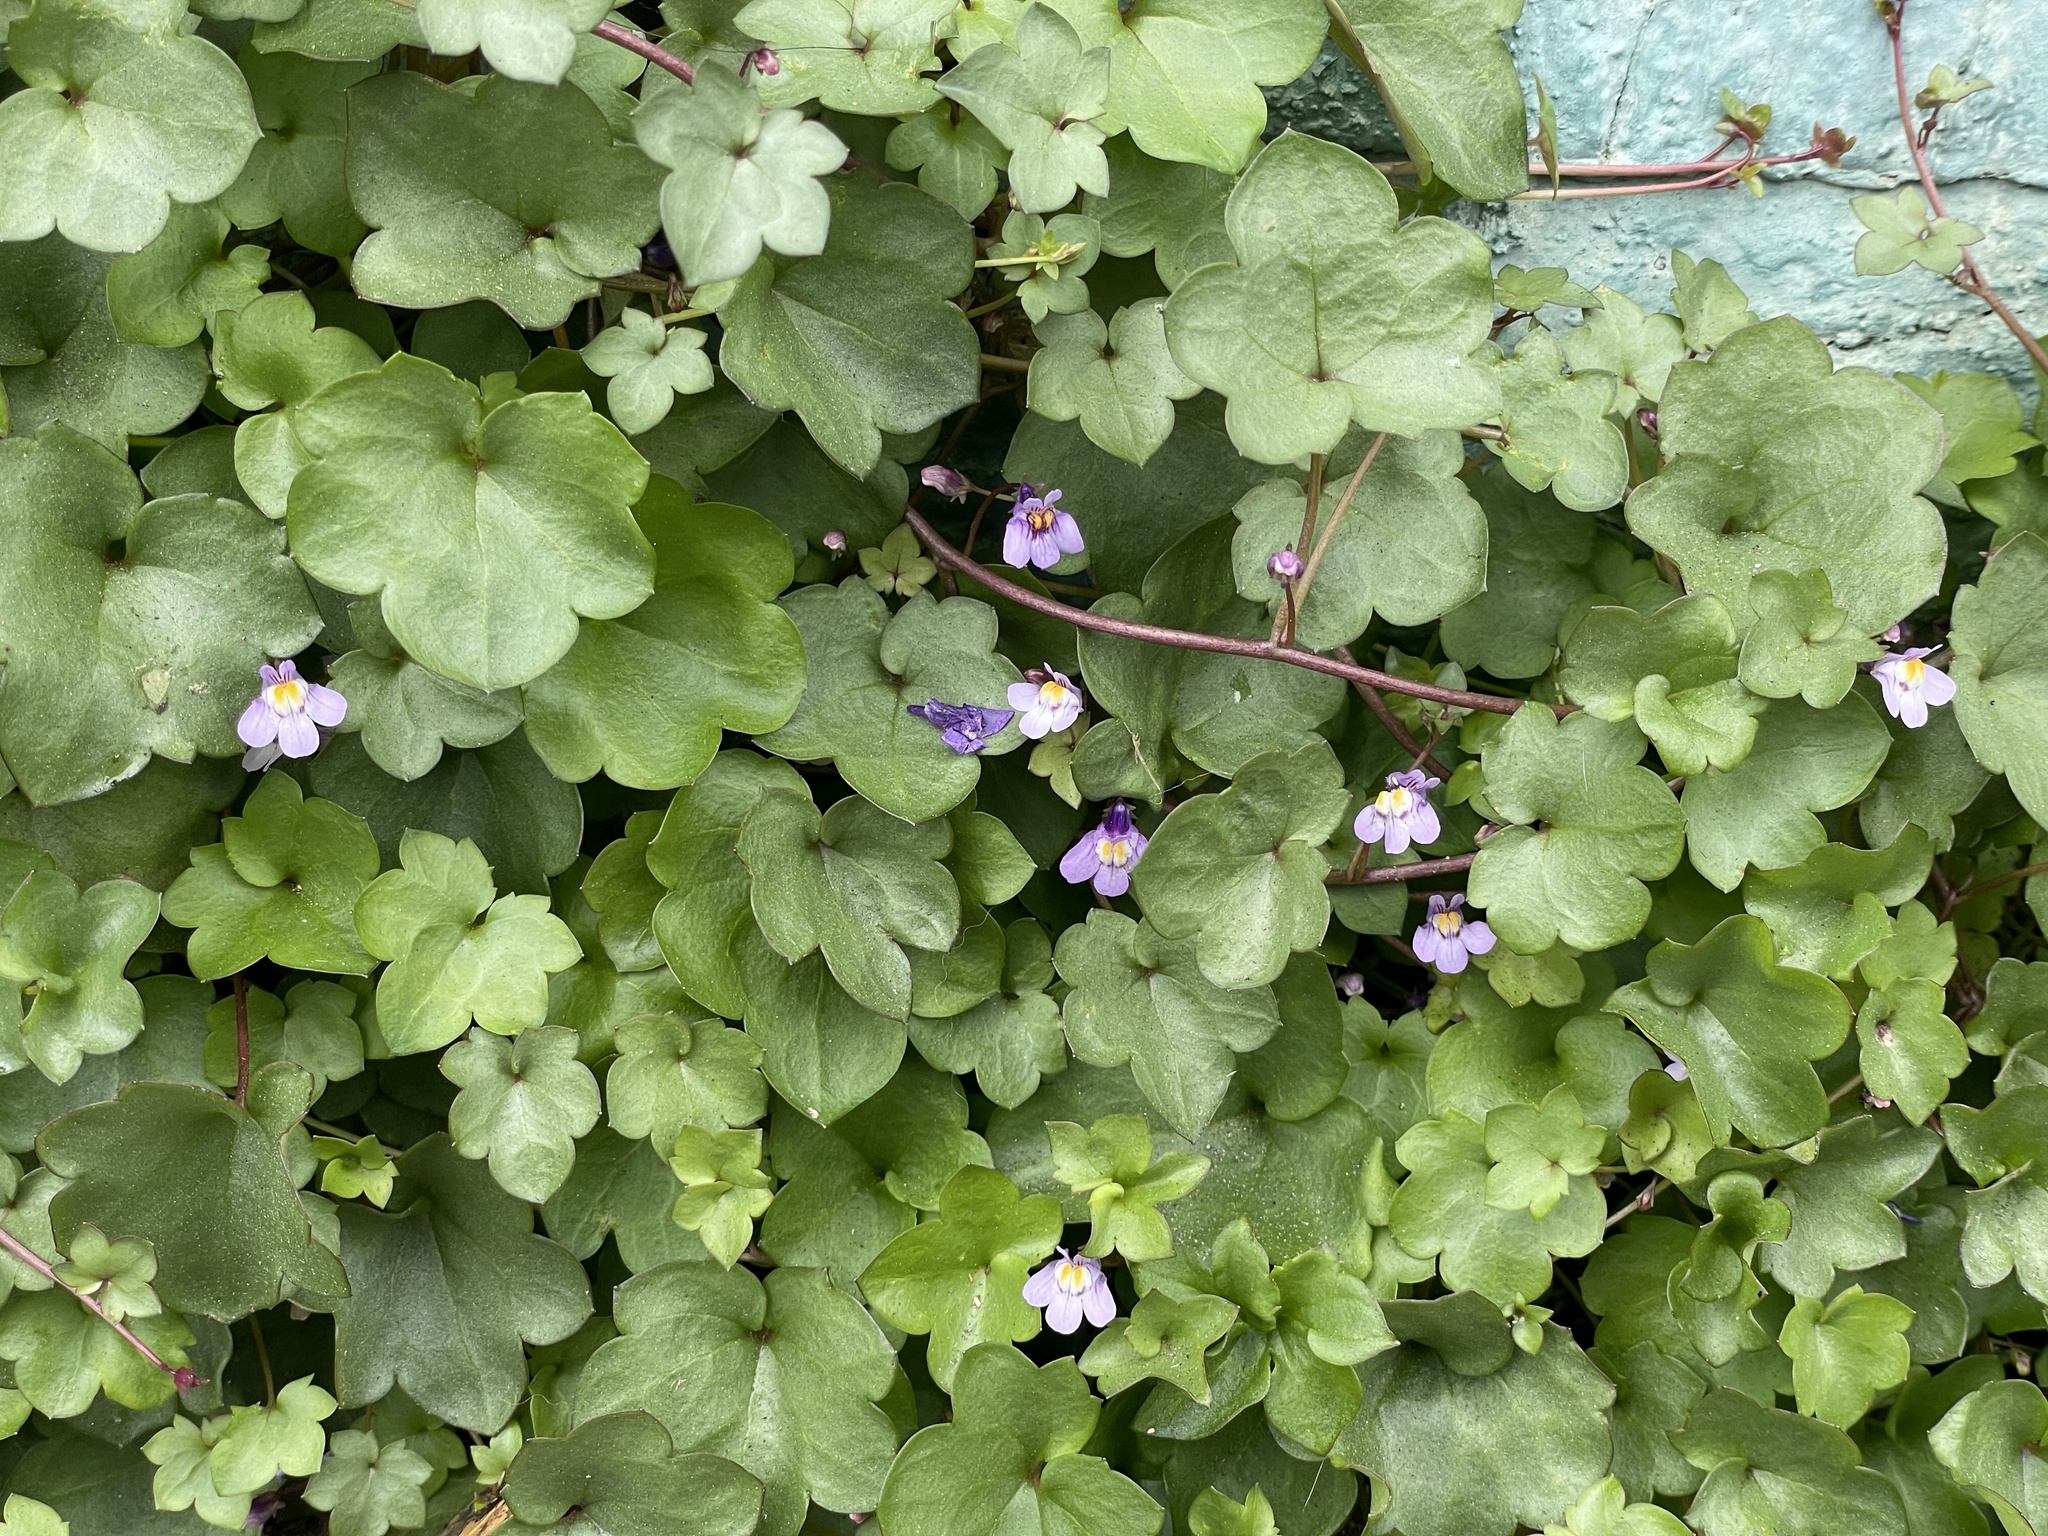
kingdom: Plantae
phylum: Tracheophyta
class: Magnoliopsida
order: Lamiales
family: Plantaginaceae
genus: Cymbalaria
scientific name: Cymbalaria muralis
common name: Ivy-leaved toadflax
